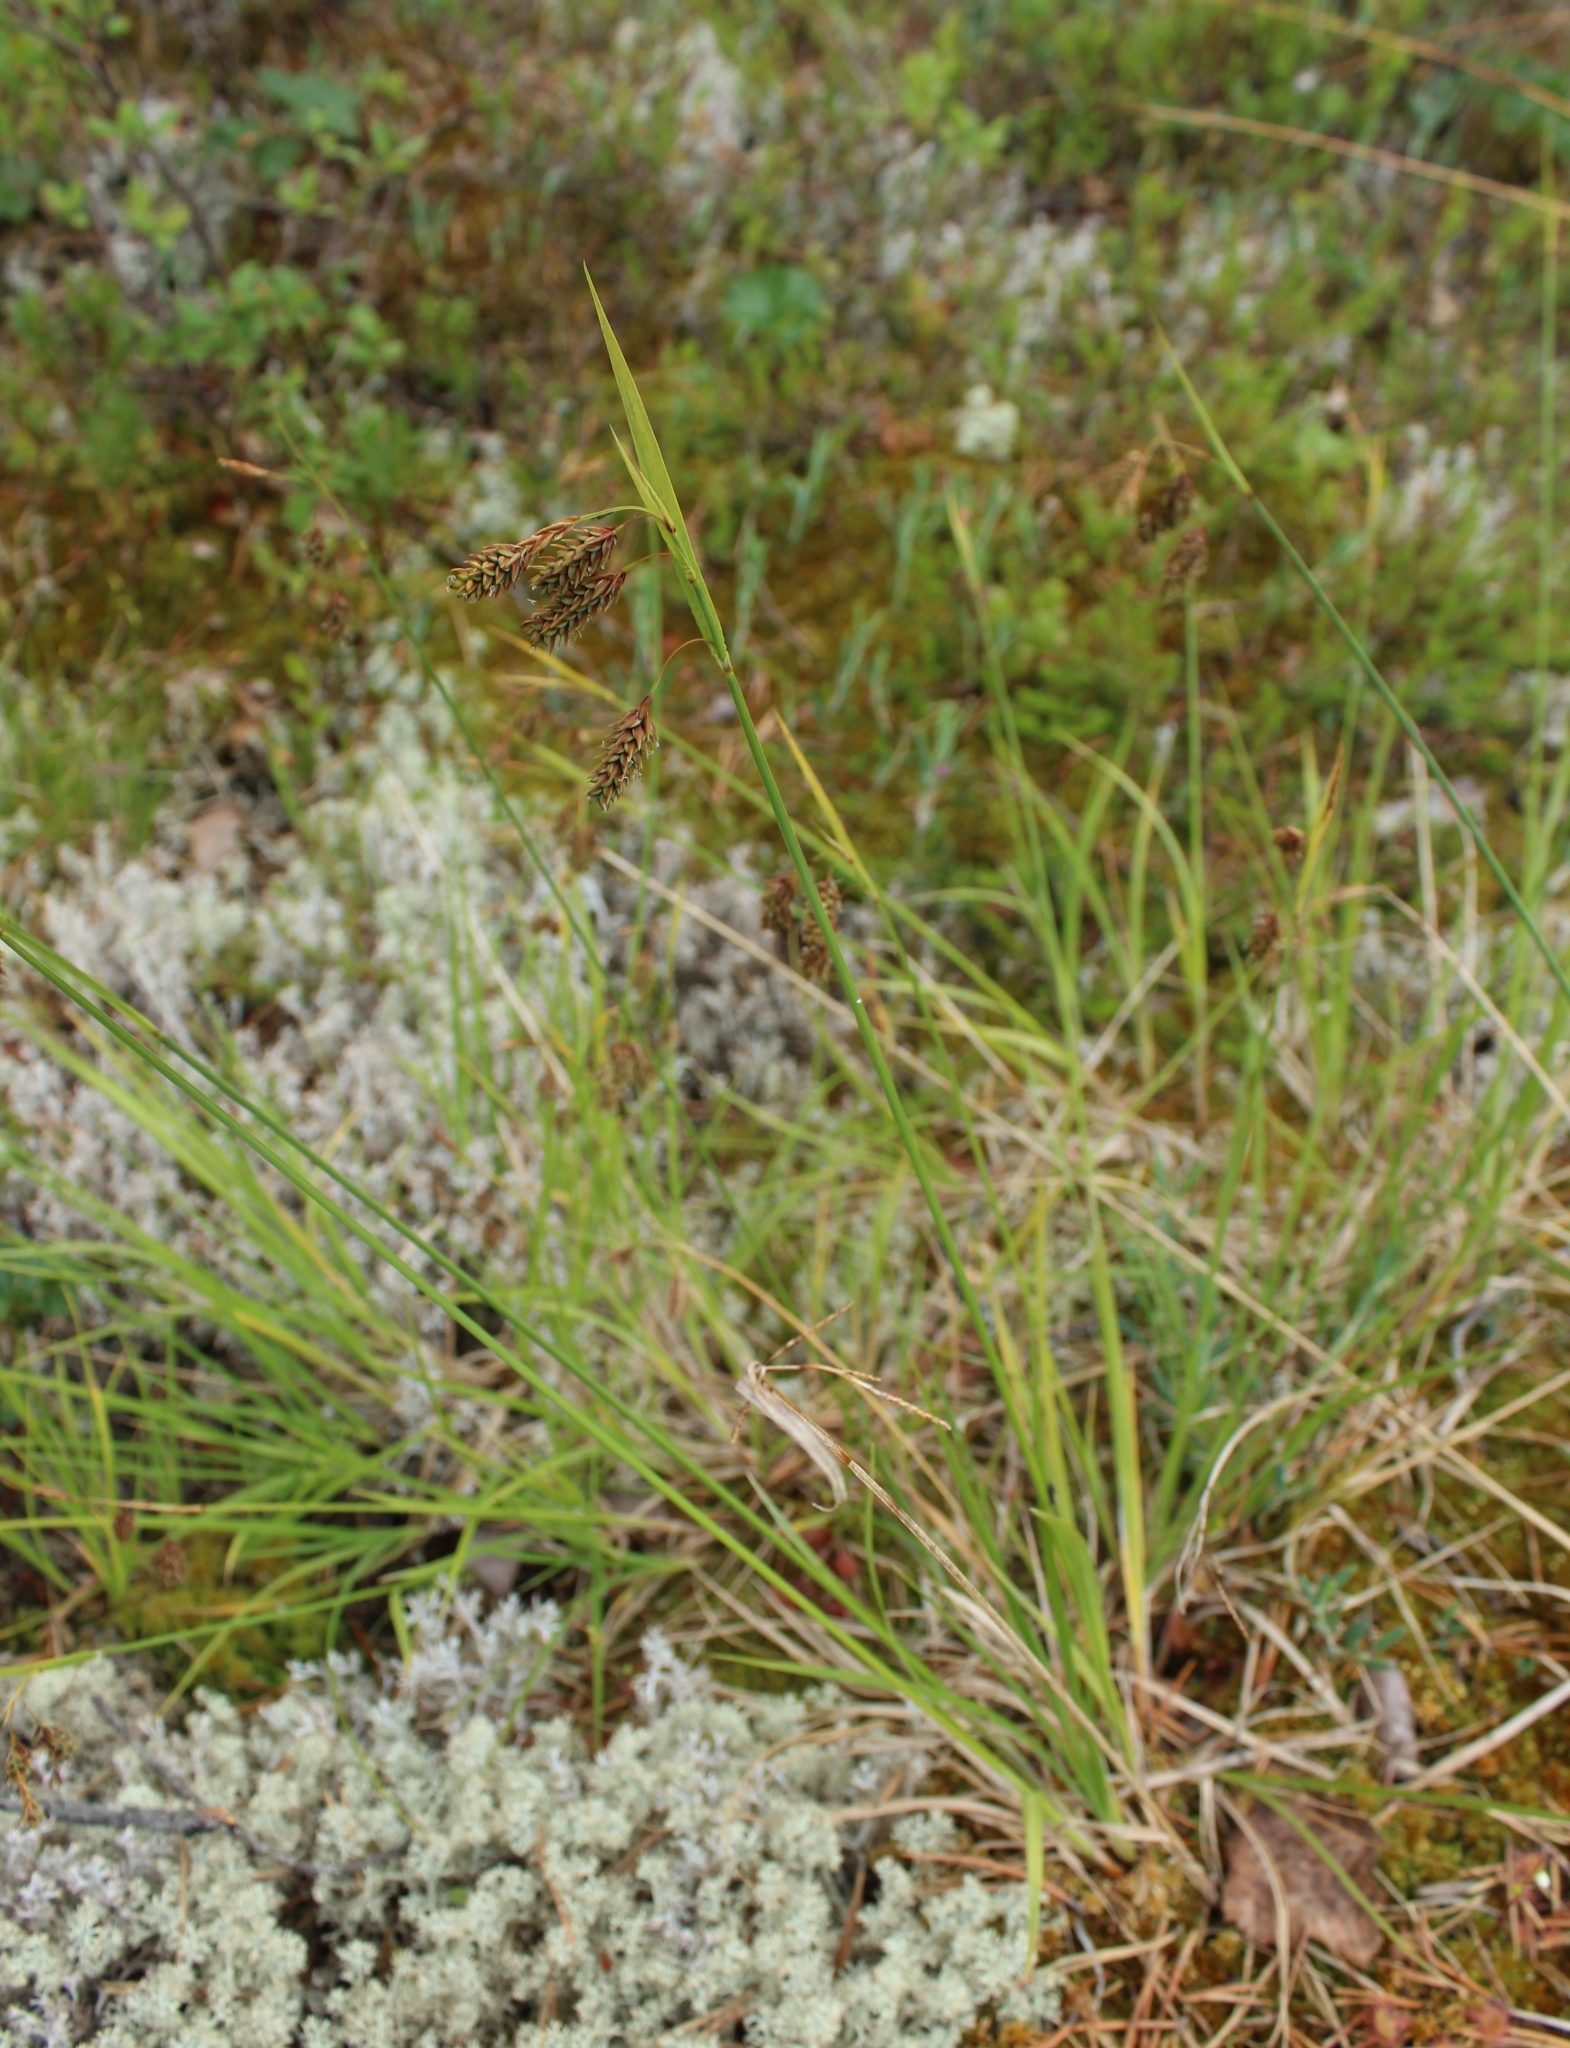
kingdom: Plantae
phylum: Tracheophyta
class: Liliopsida
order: Poales
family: Cyperaceae
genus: Carex
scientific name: Carex magellanica
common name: Bog sedge
